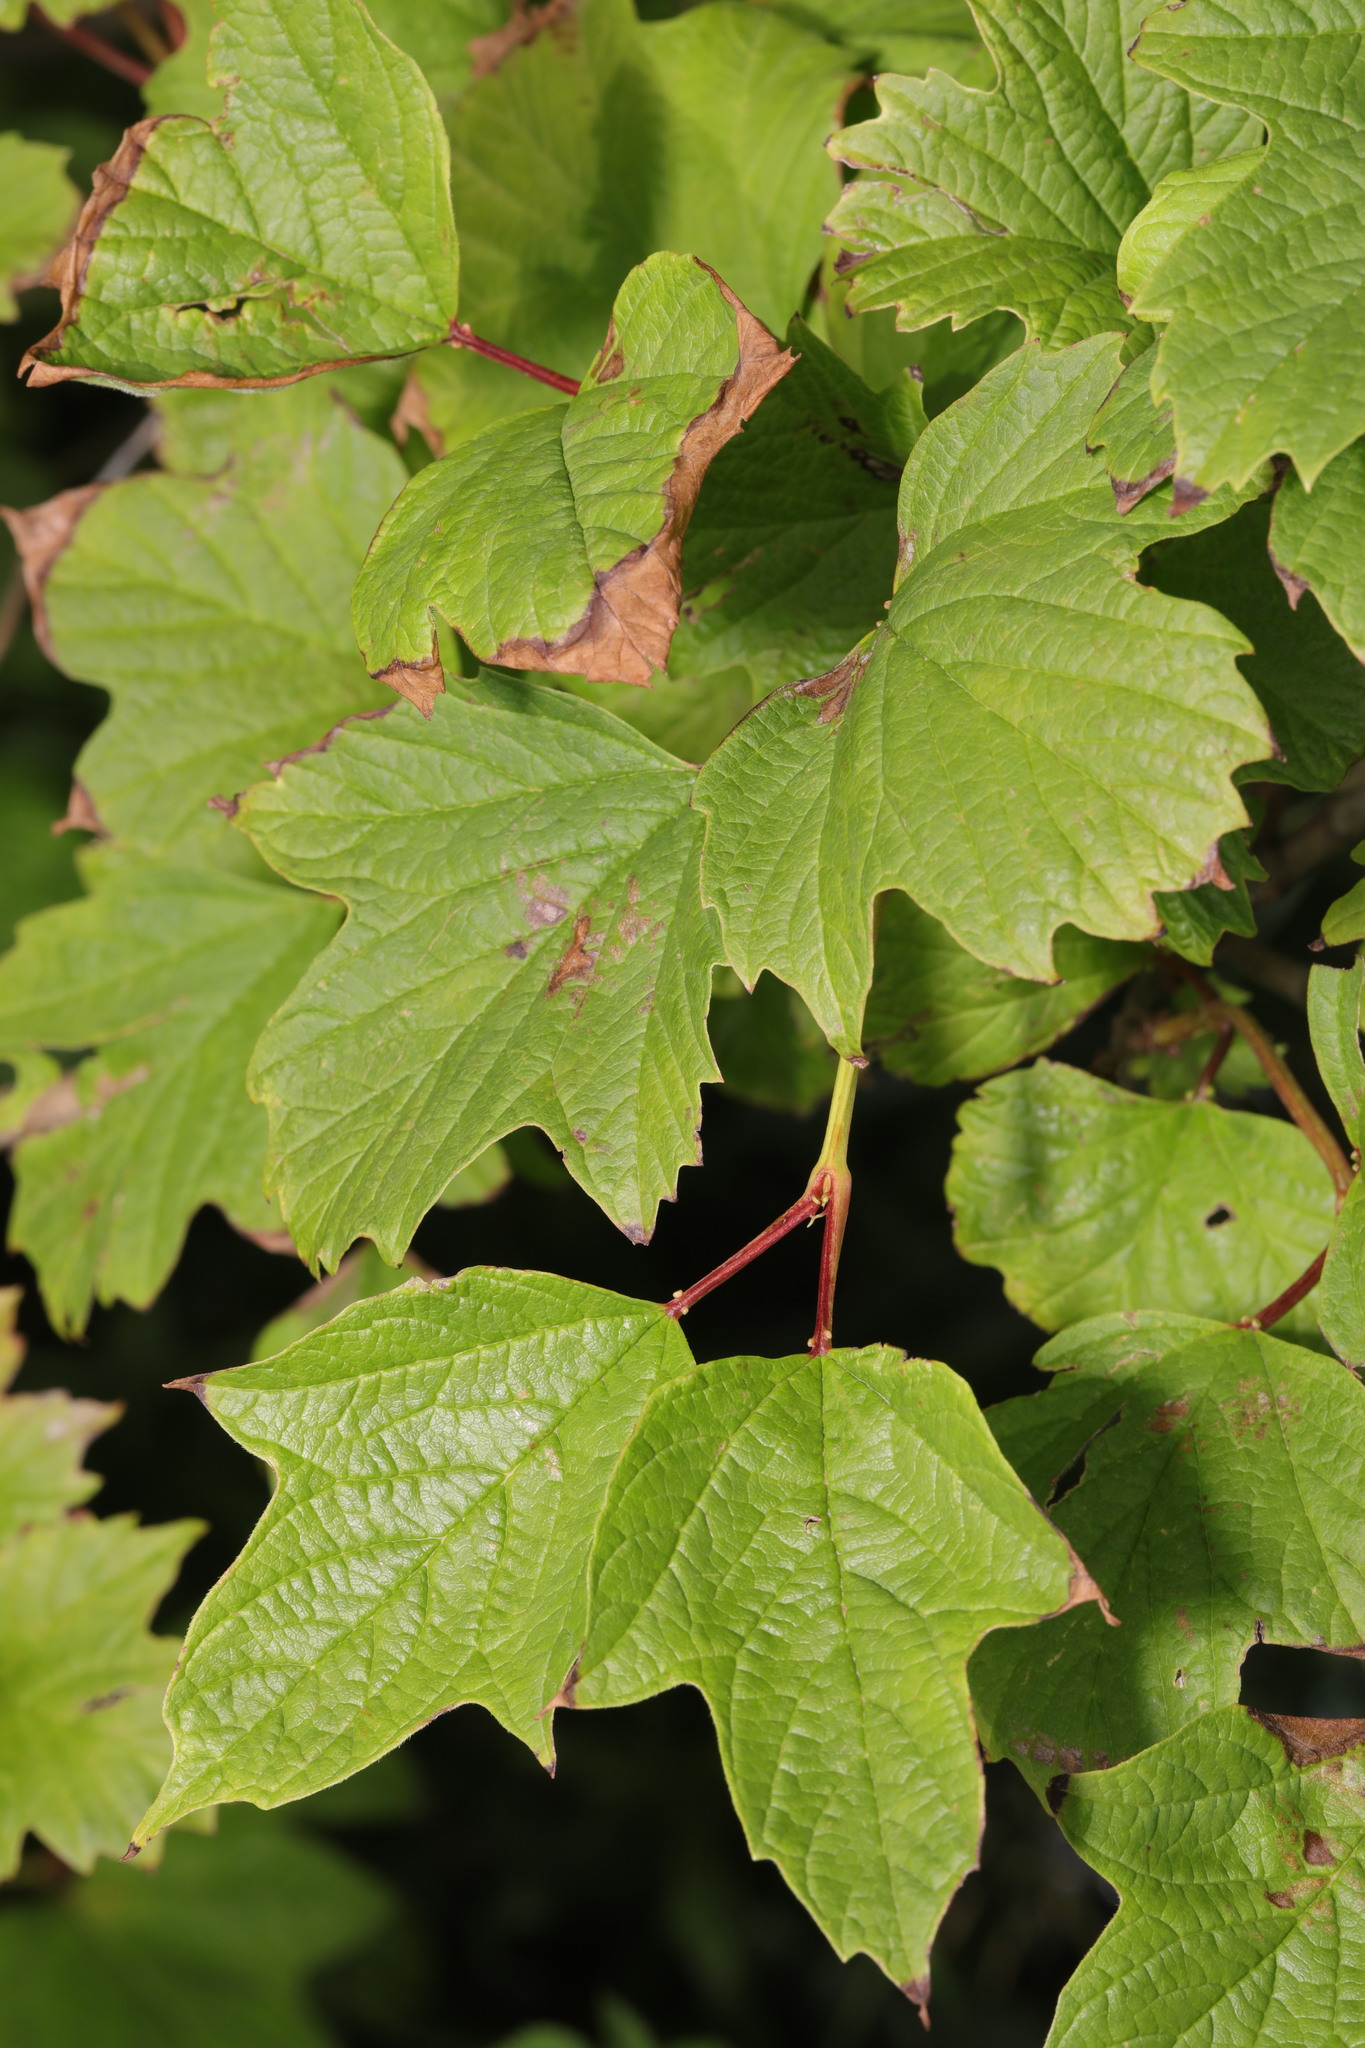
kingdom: Plantae
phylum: Tracheophyta
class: Magnoliopsida
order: Dipsacales
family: Viburnaceae
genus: Viburnum
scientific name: Viburnum opulus
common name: Guelder-rose
